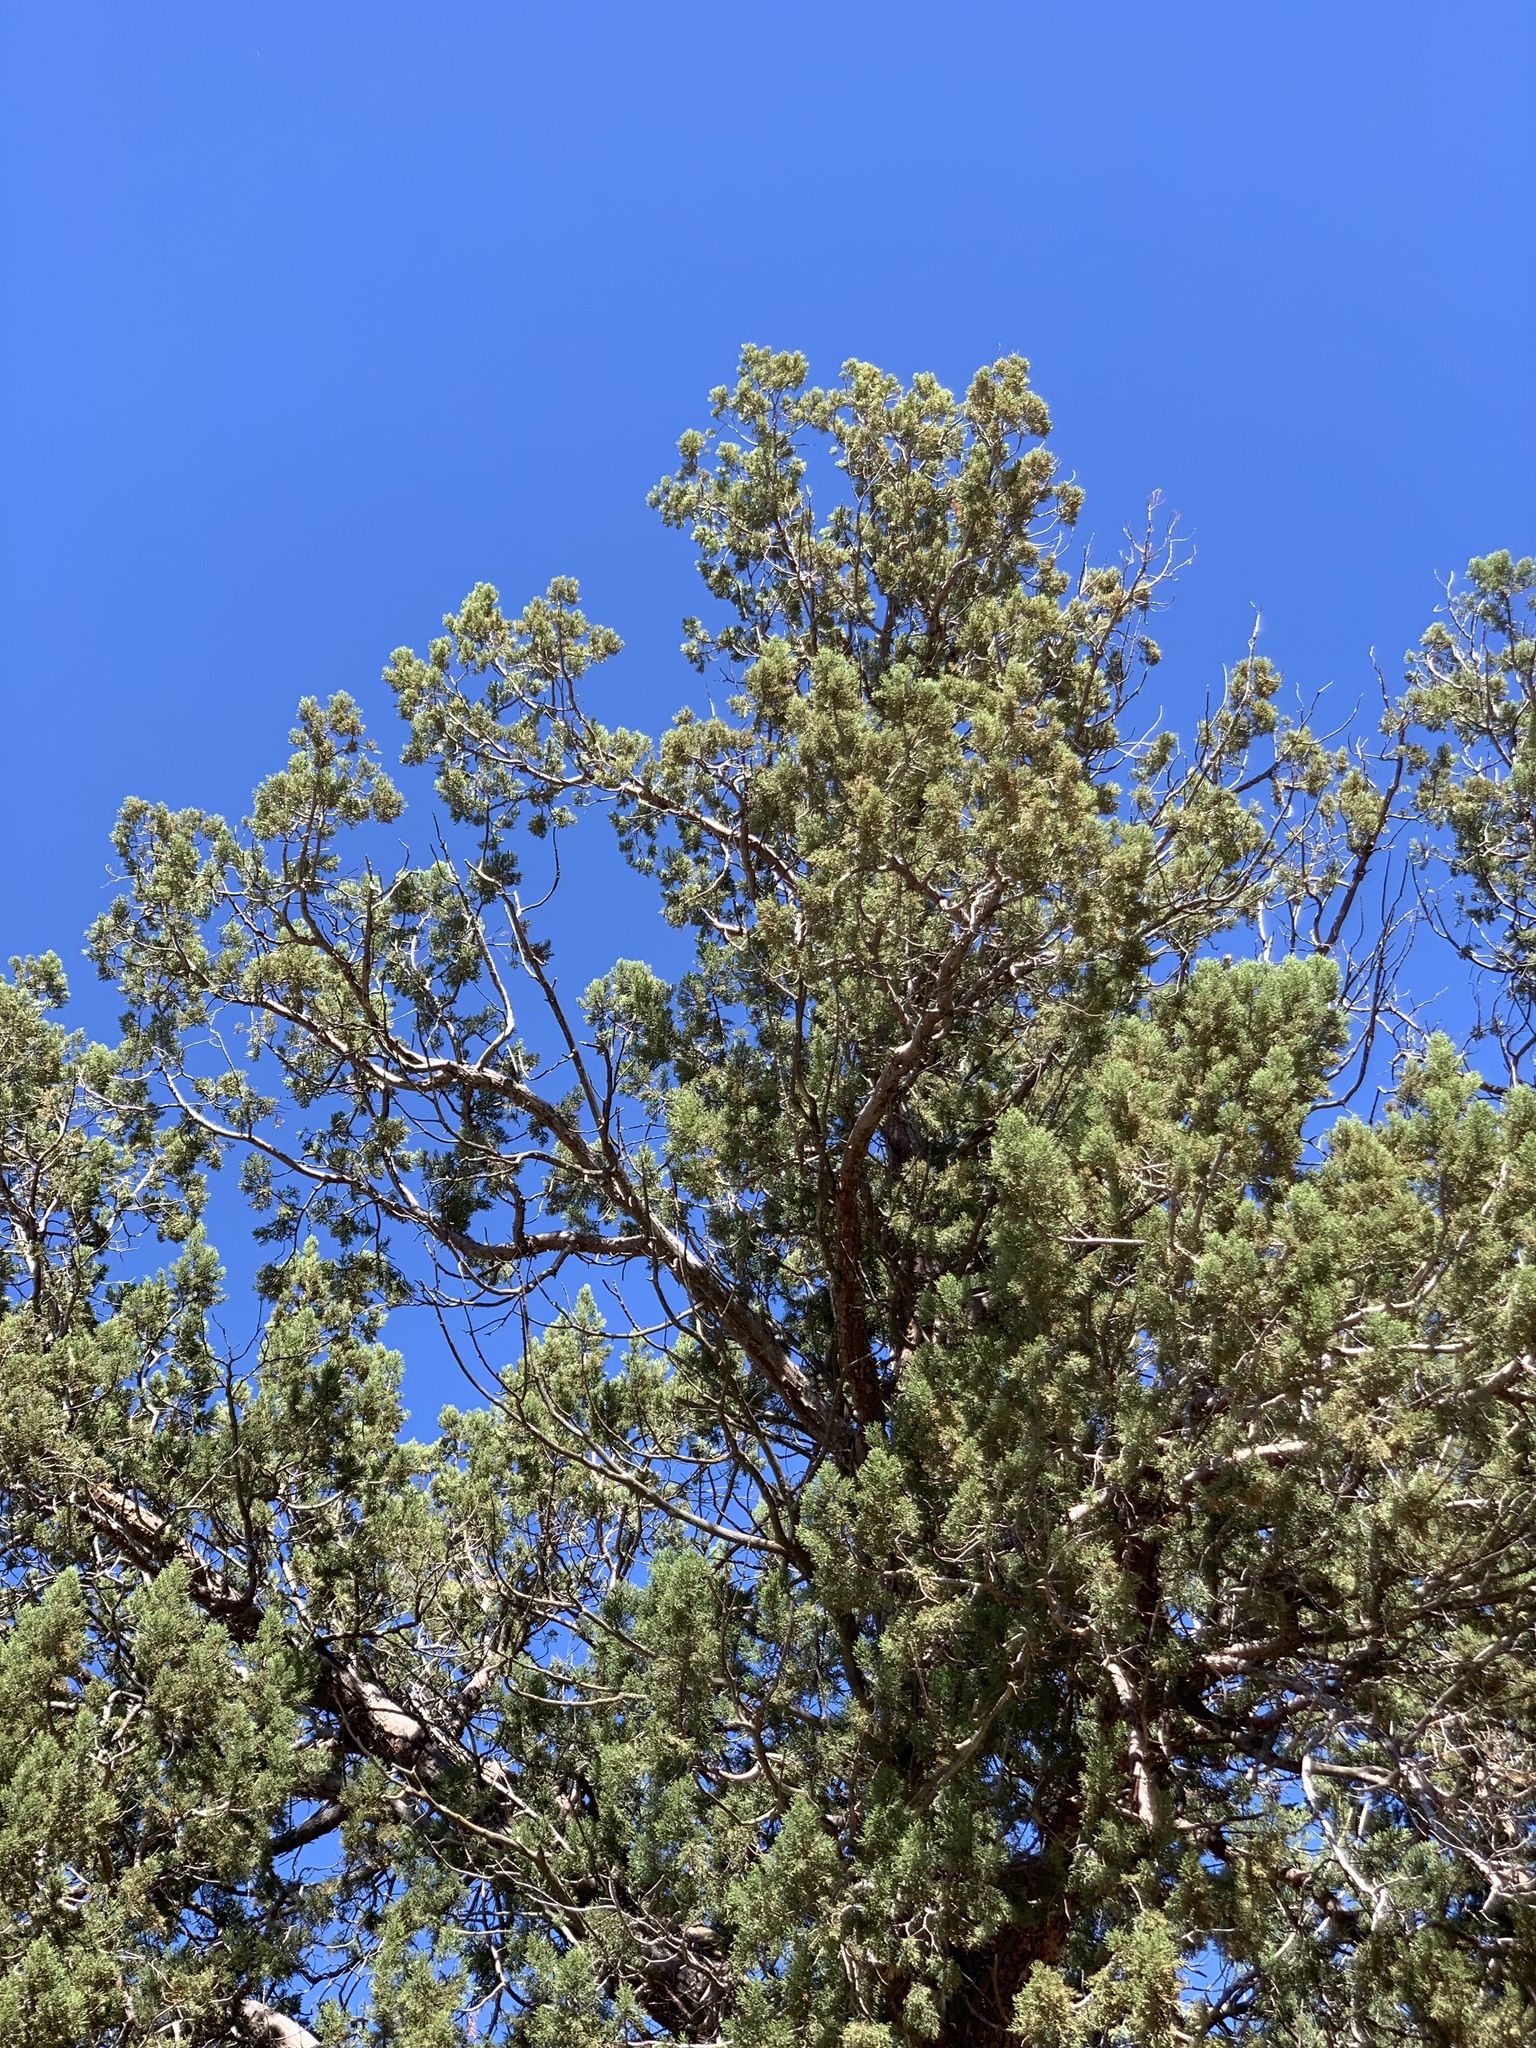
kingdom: Plantae
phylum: Tracheophyta
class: Pinopsida
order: Pinales
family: Cupressaceae
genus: Juniperus
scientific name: Juniperus deppeana
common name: Alligator juniper
